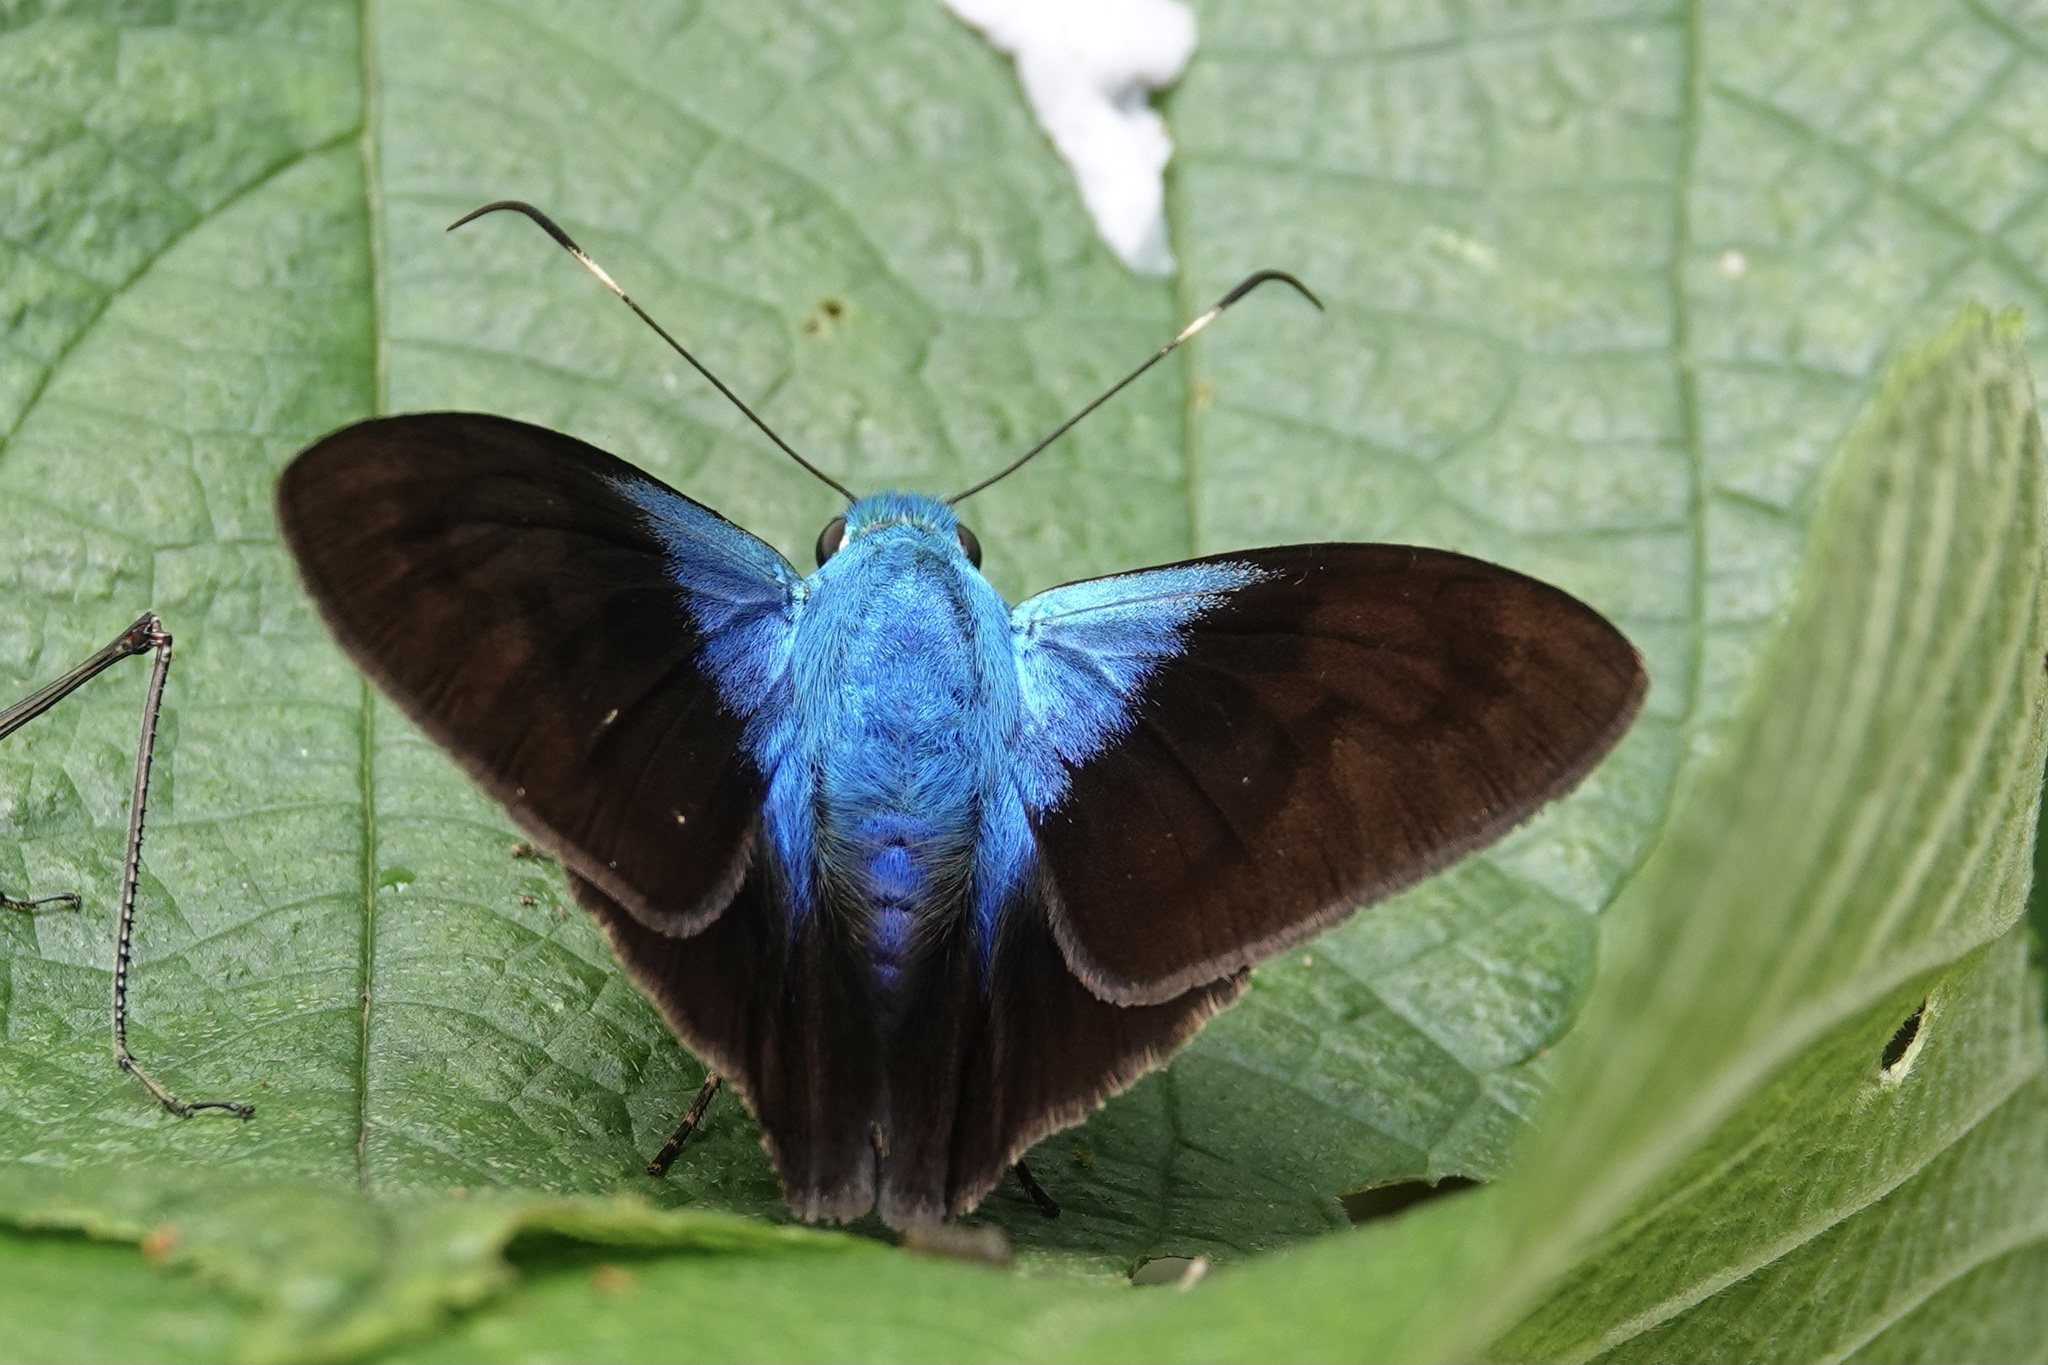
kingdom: Animalia
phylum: Arthropoda
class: Insecta
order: Lepidoptera
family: Hesperiidae
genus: Astraptes
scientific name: Astraptes
